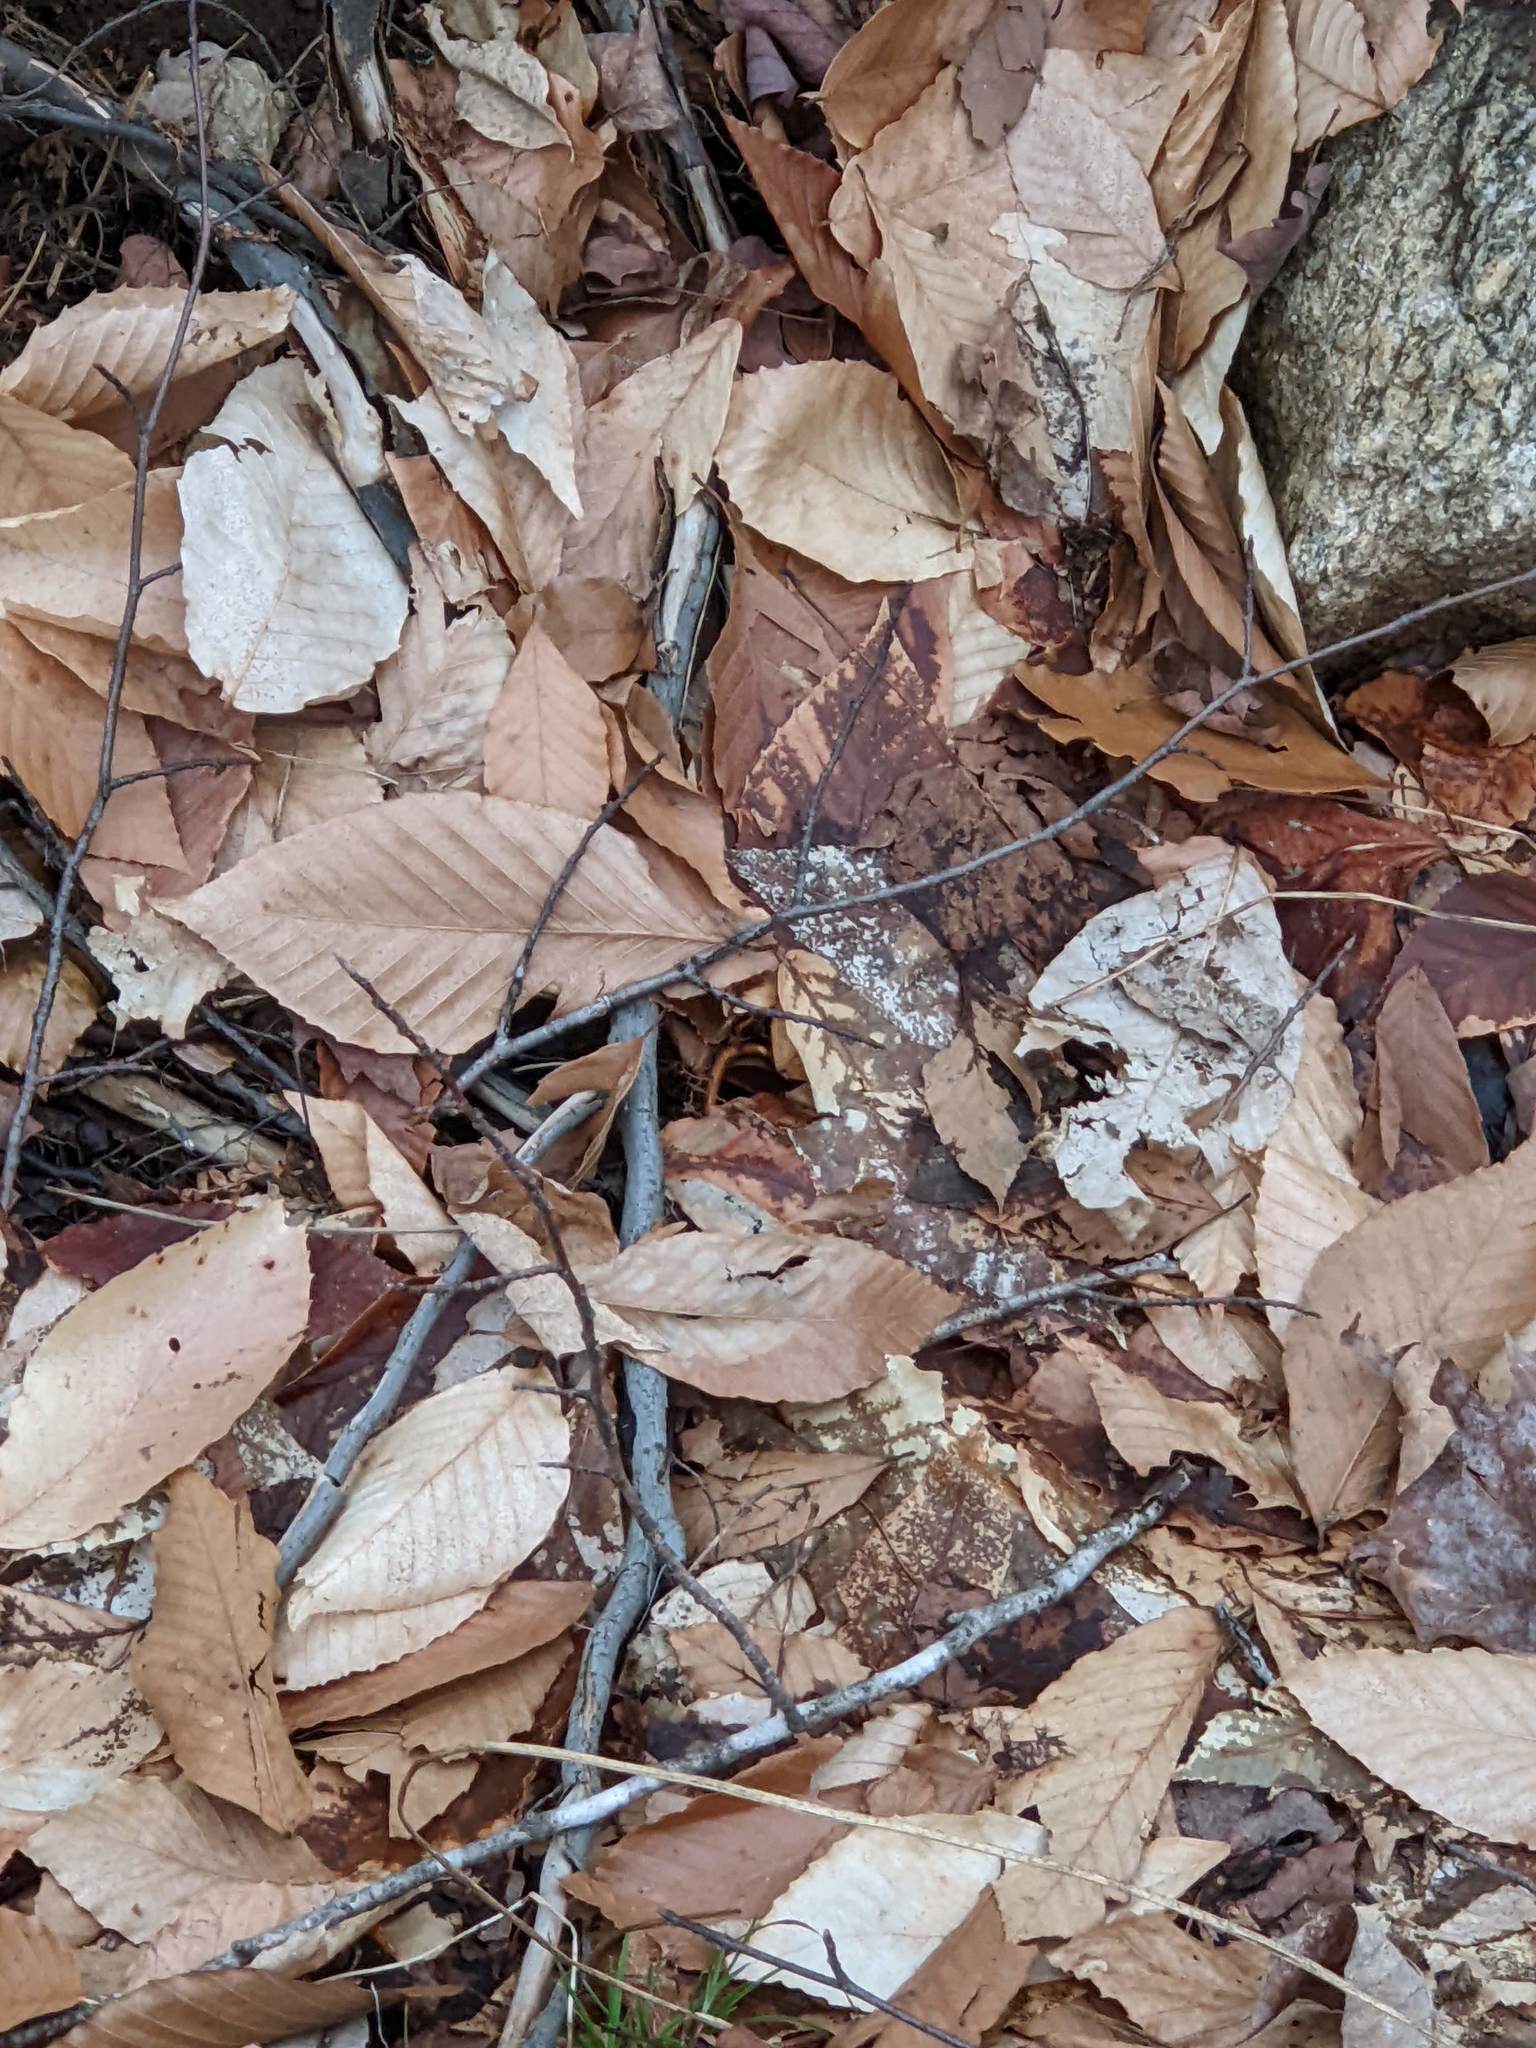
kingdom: Plantae
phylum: Tracheophyta
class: Magnoliopsida
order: Fagales
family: Fagaceae
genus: Fagus
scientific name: Fagus grandifolia
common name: American beech
